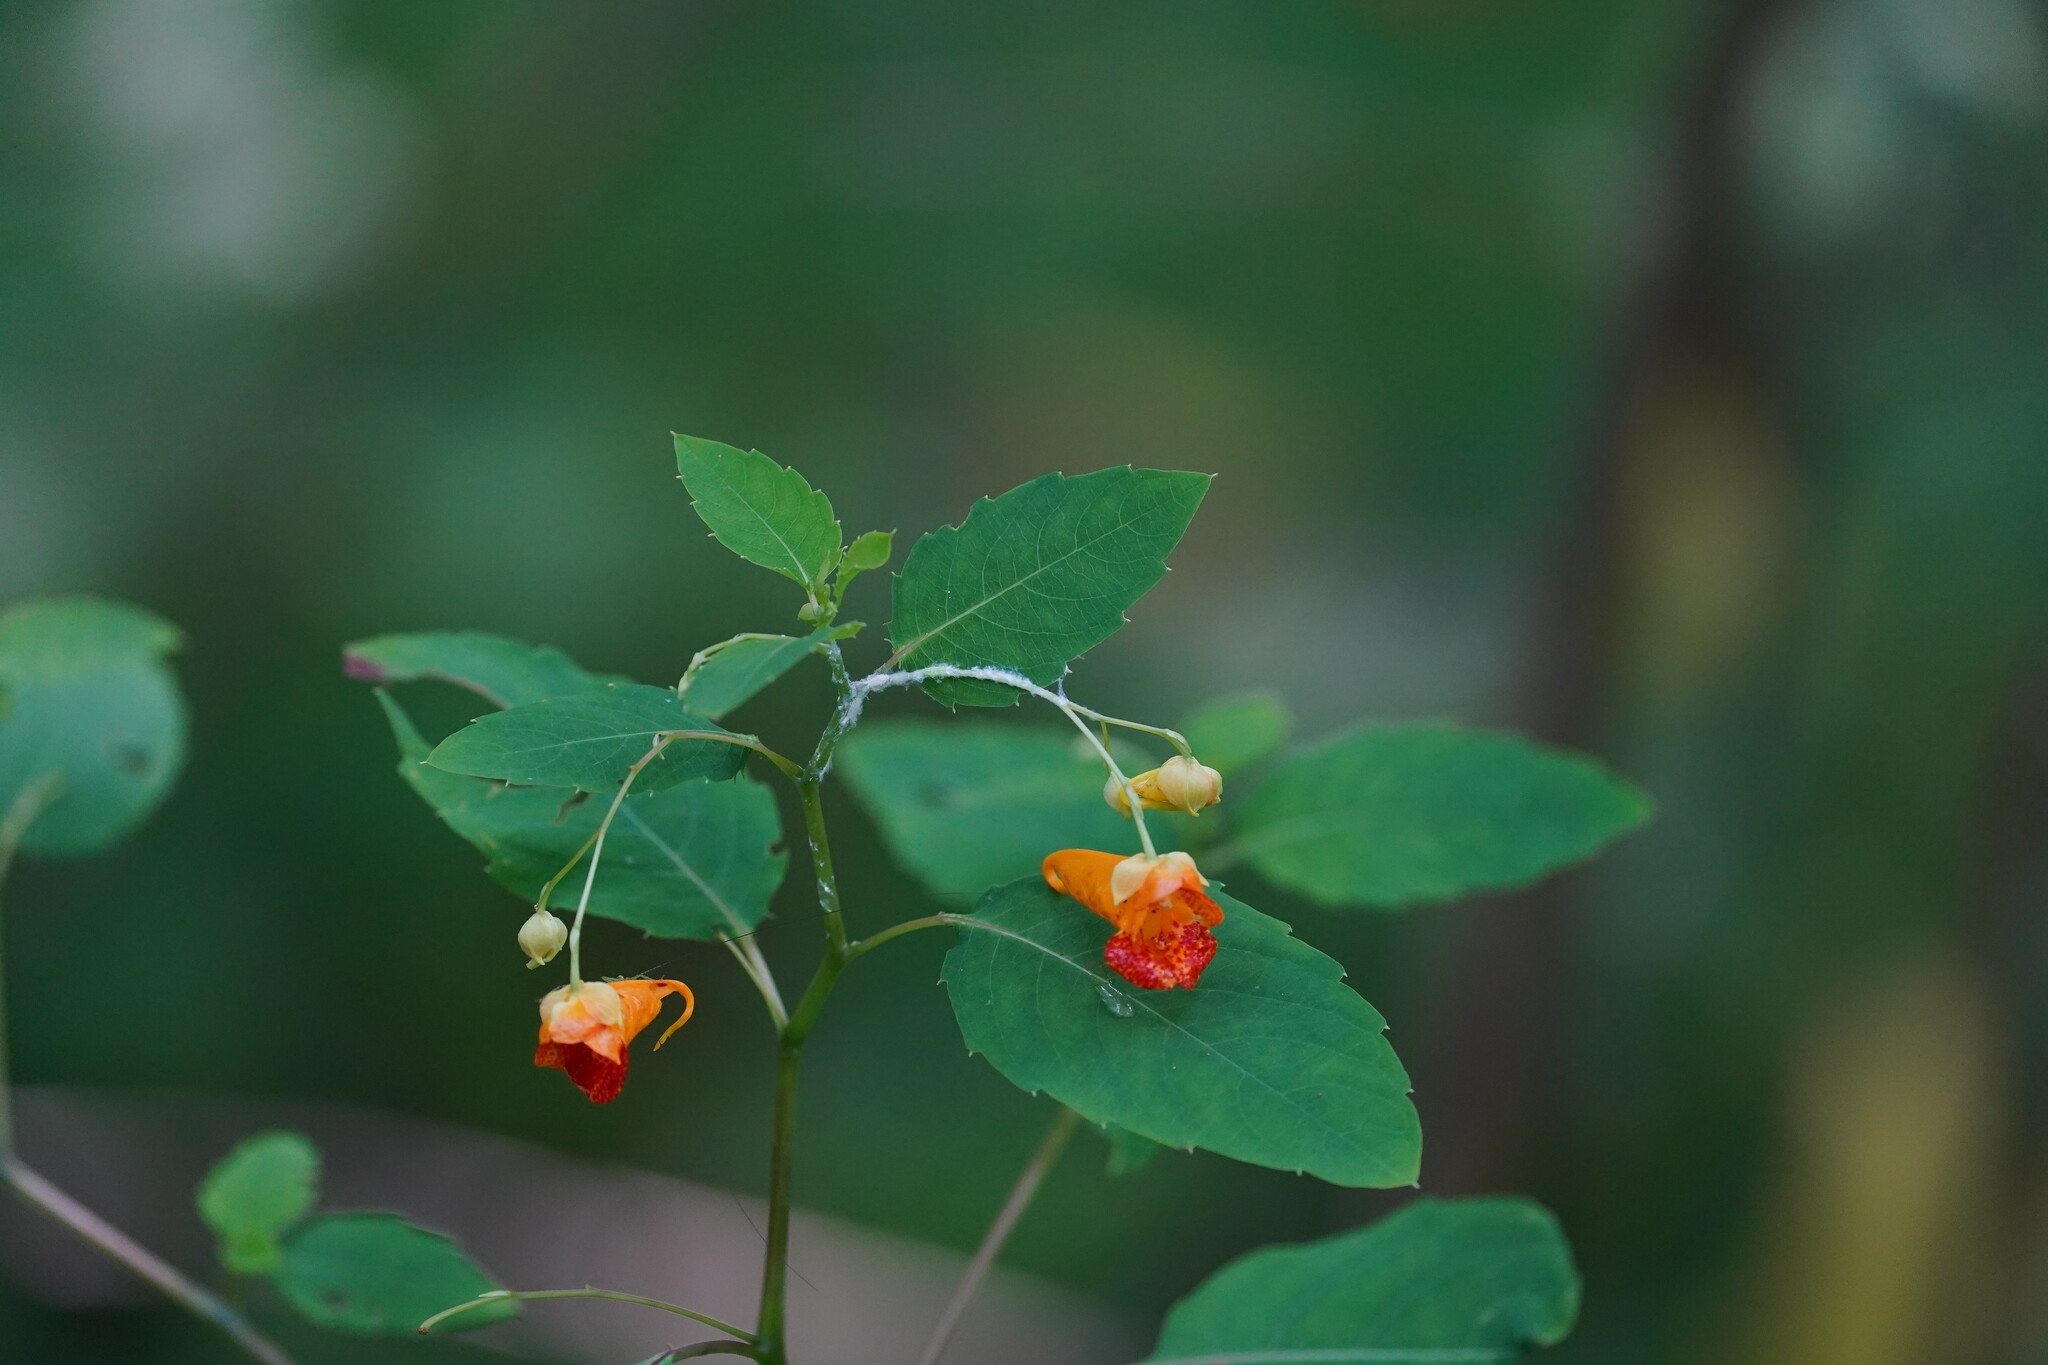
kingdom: Plantae
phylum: Tracheophyta
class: Magnoliopsida
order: Ericales
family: Balsaminaceae
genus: Impatiens
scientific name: Impatiens capensis
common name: Orange balsam
